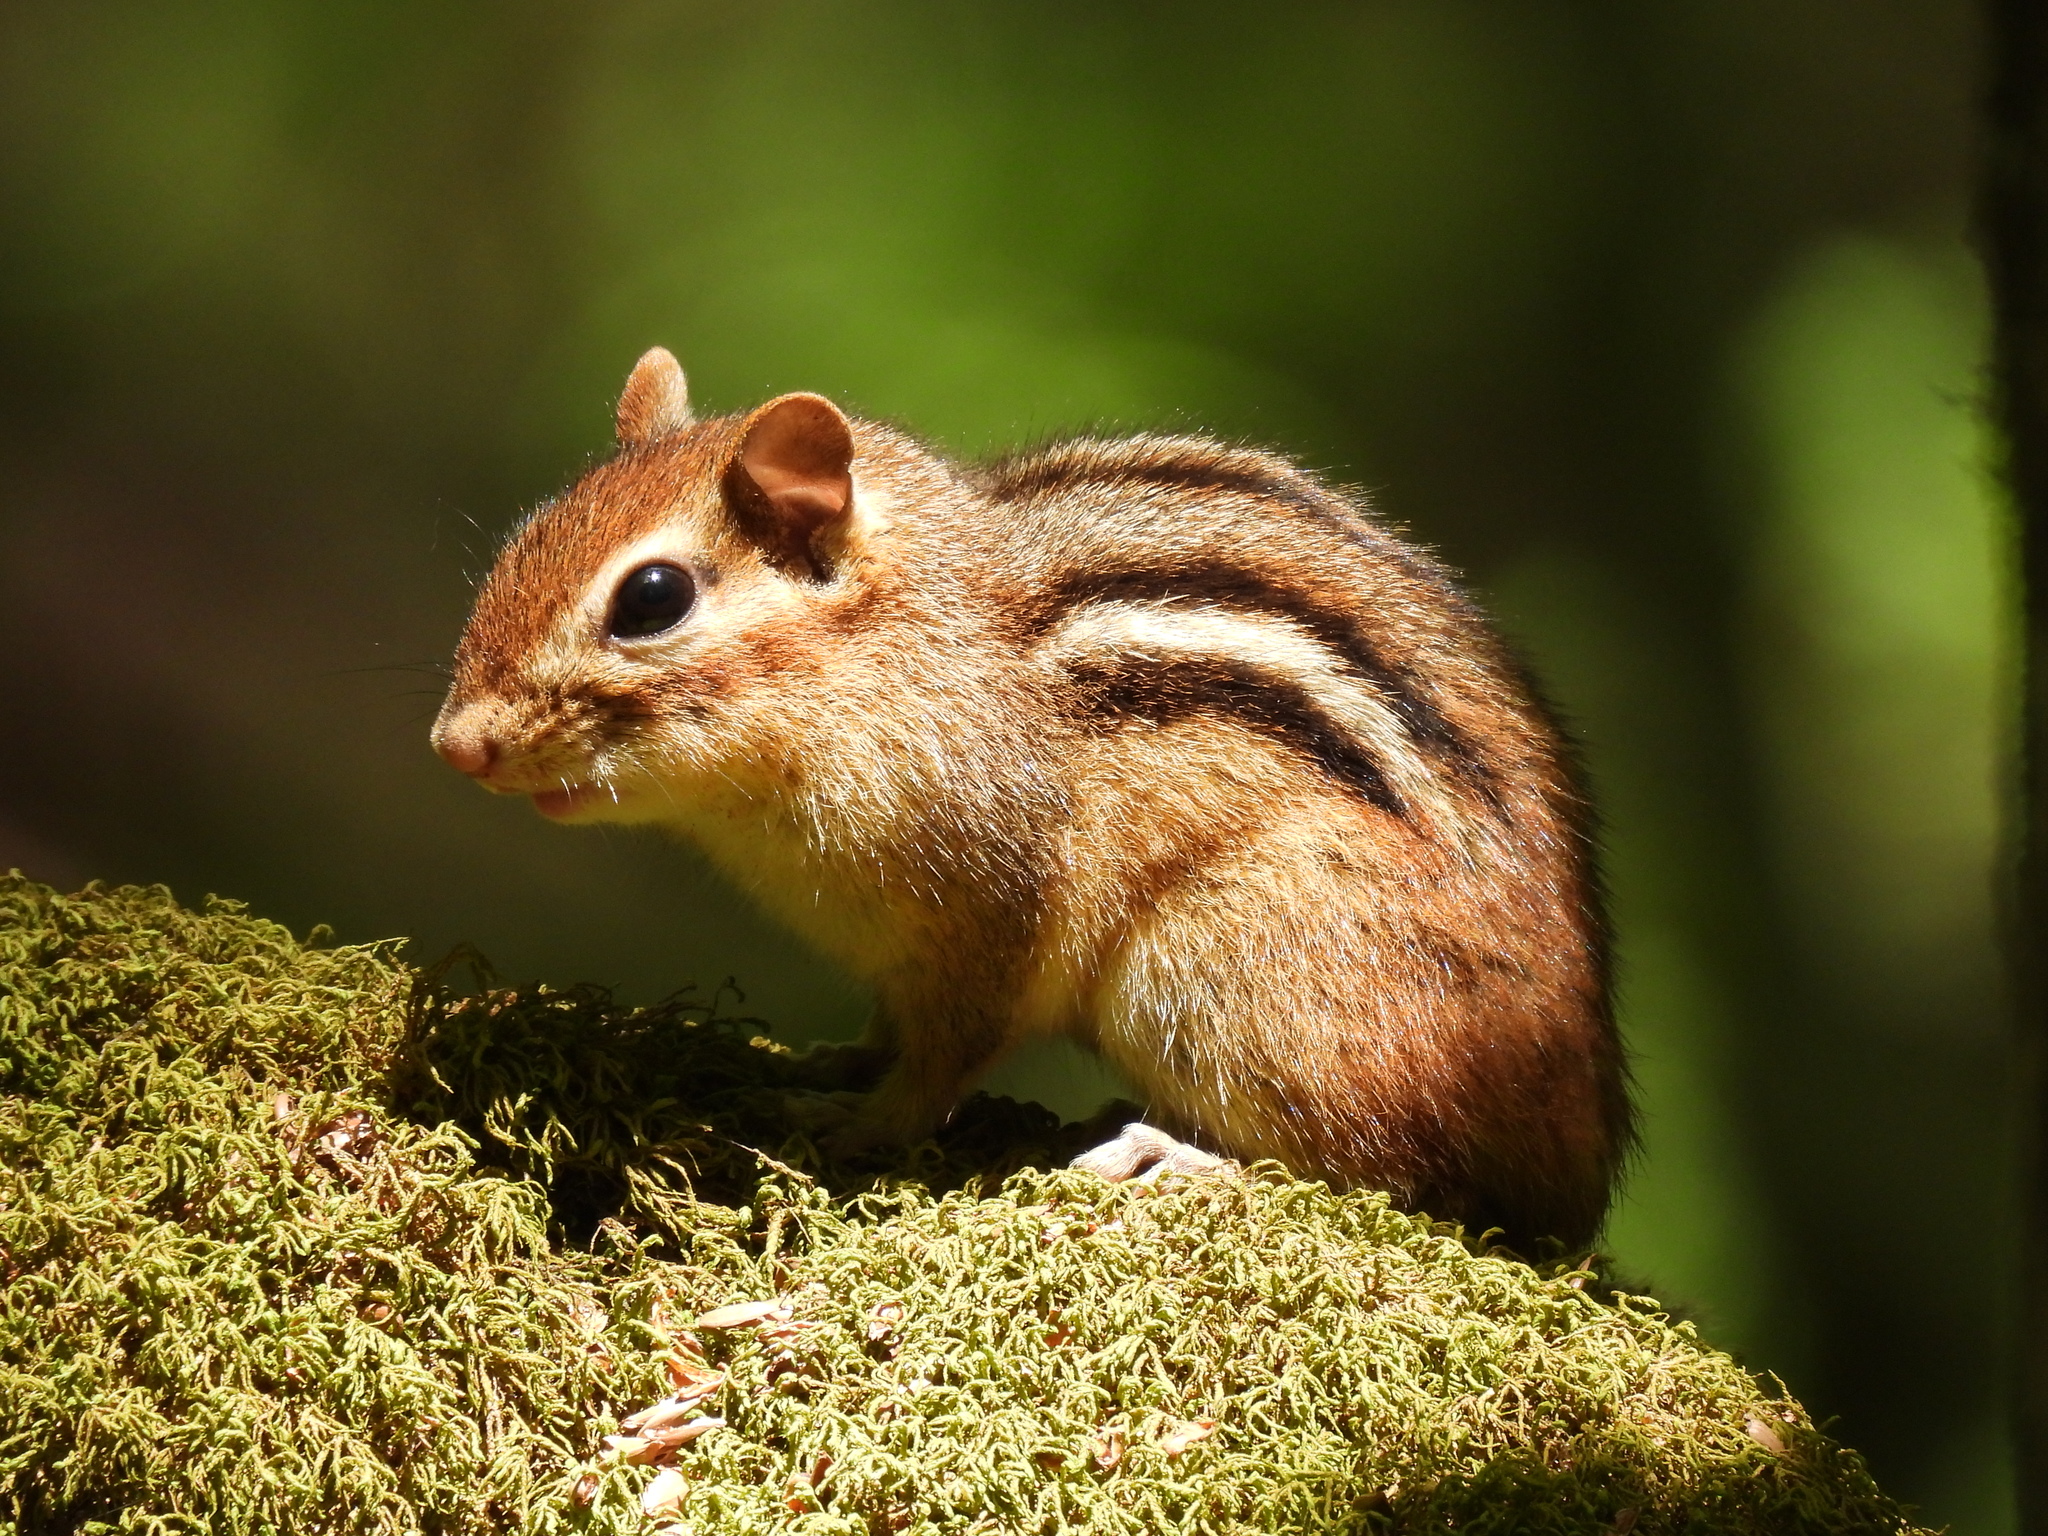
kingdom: Animalia
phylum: Chordata
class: Mammalia
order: Rodentia
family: Sciuridae
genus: Tamias
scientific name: Tamias striatus
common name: Eastern chipmunk
